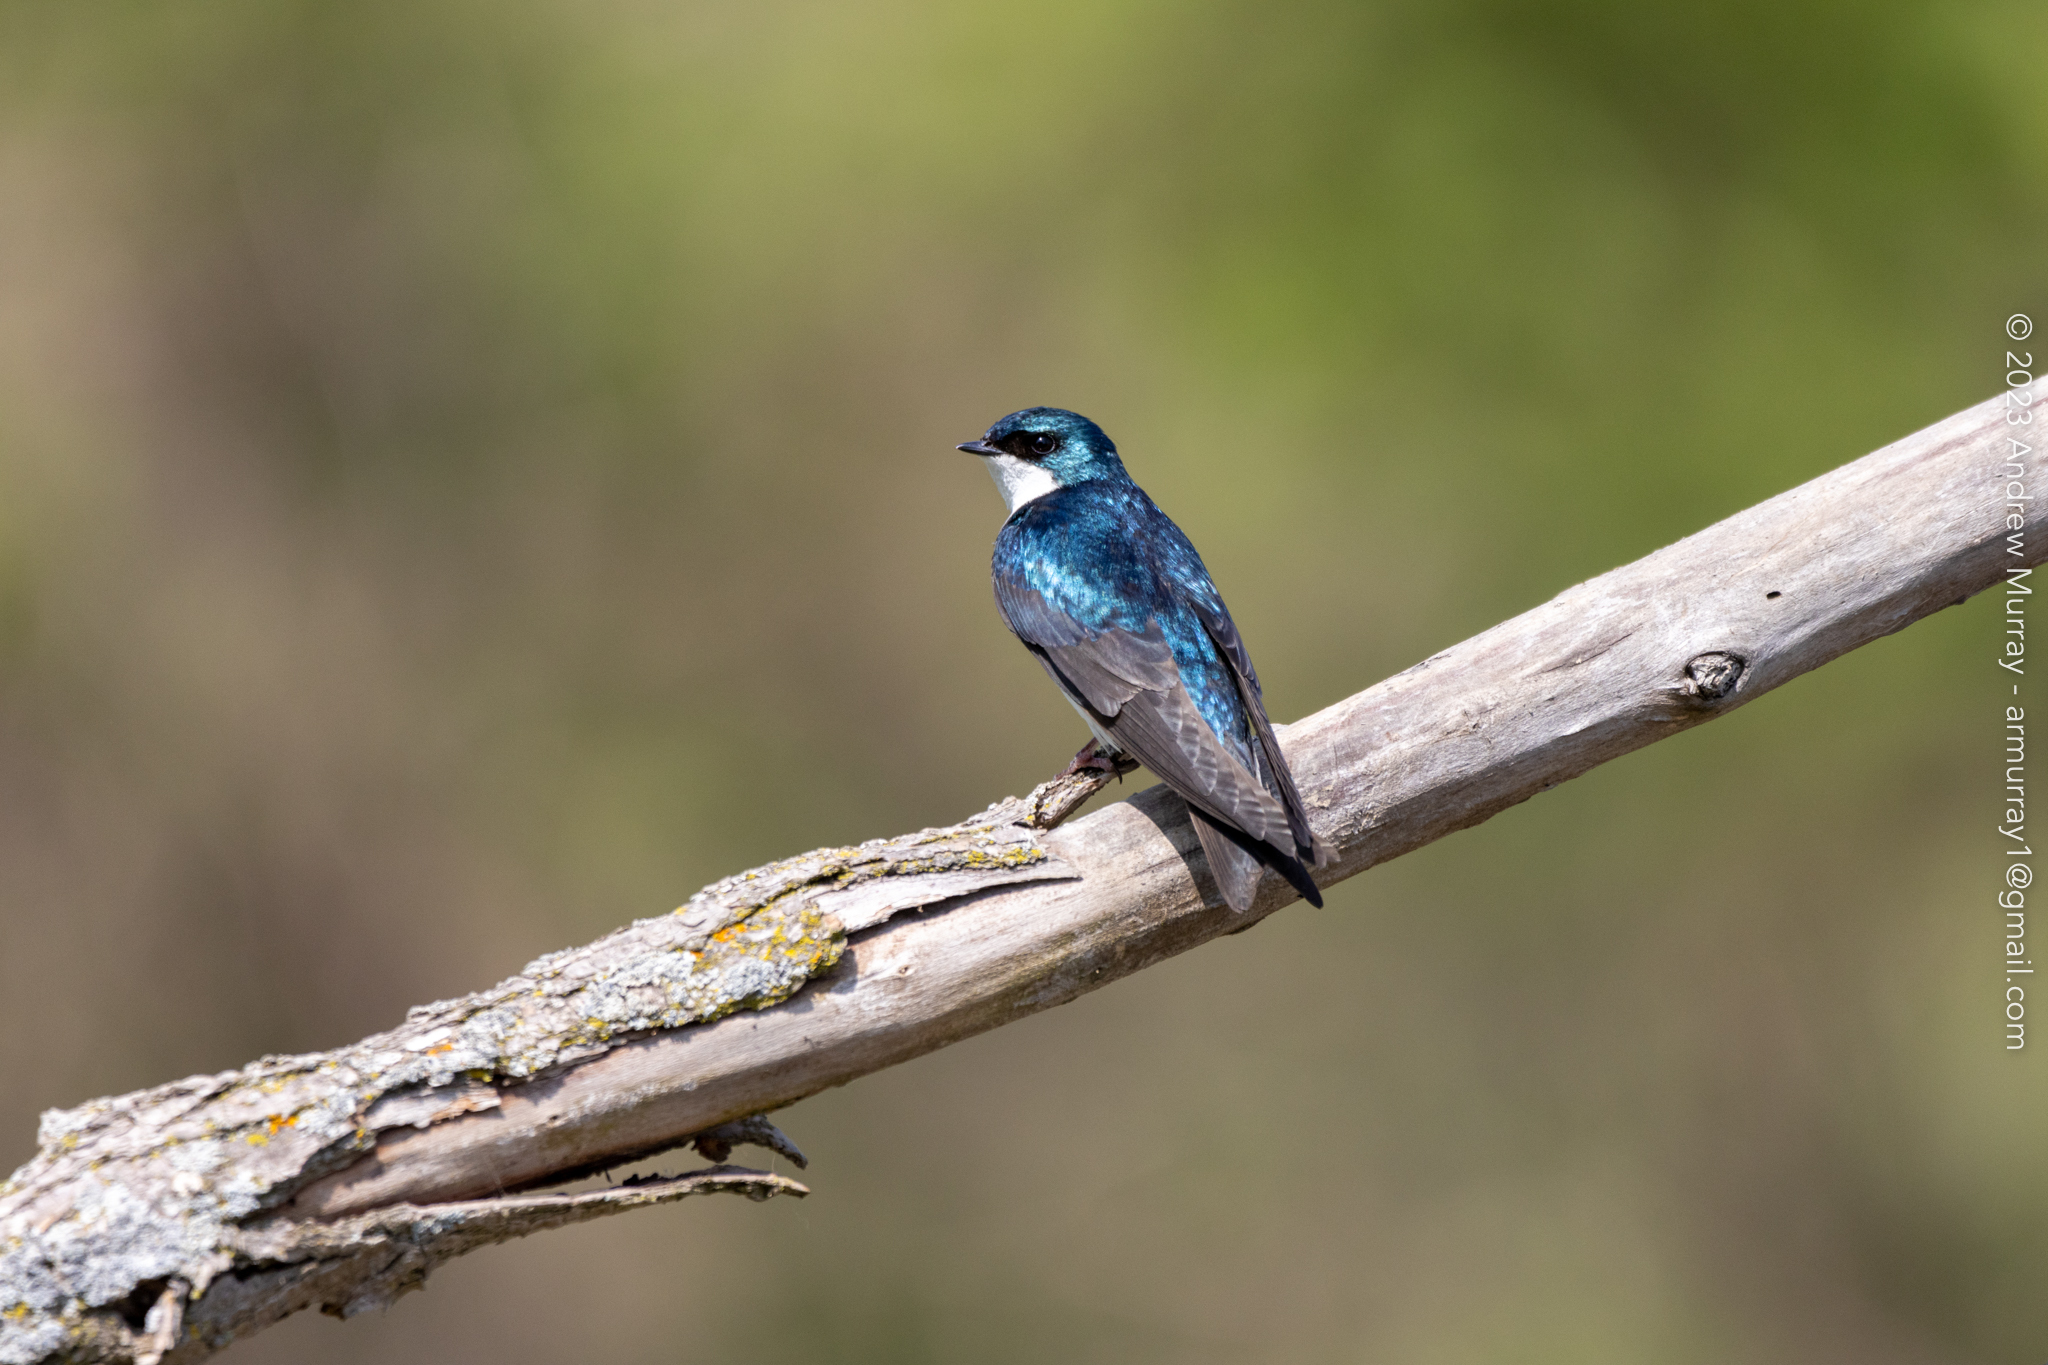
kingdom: Animalia
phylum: Chordata
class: Aves
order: Passeriformes
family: Hirundinidae
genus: Tachycineta
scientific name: Tachycineta bicolor
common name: Tree swallow
